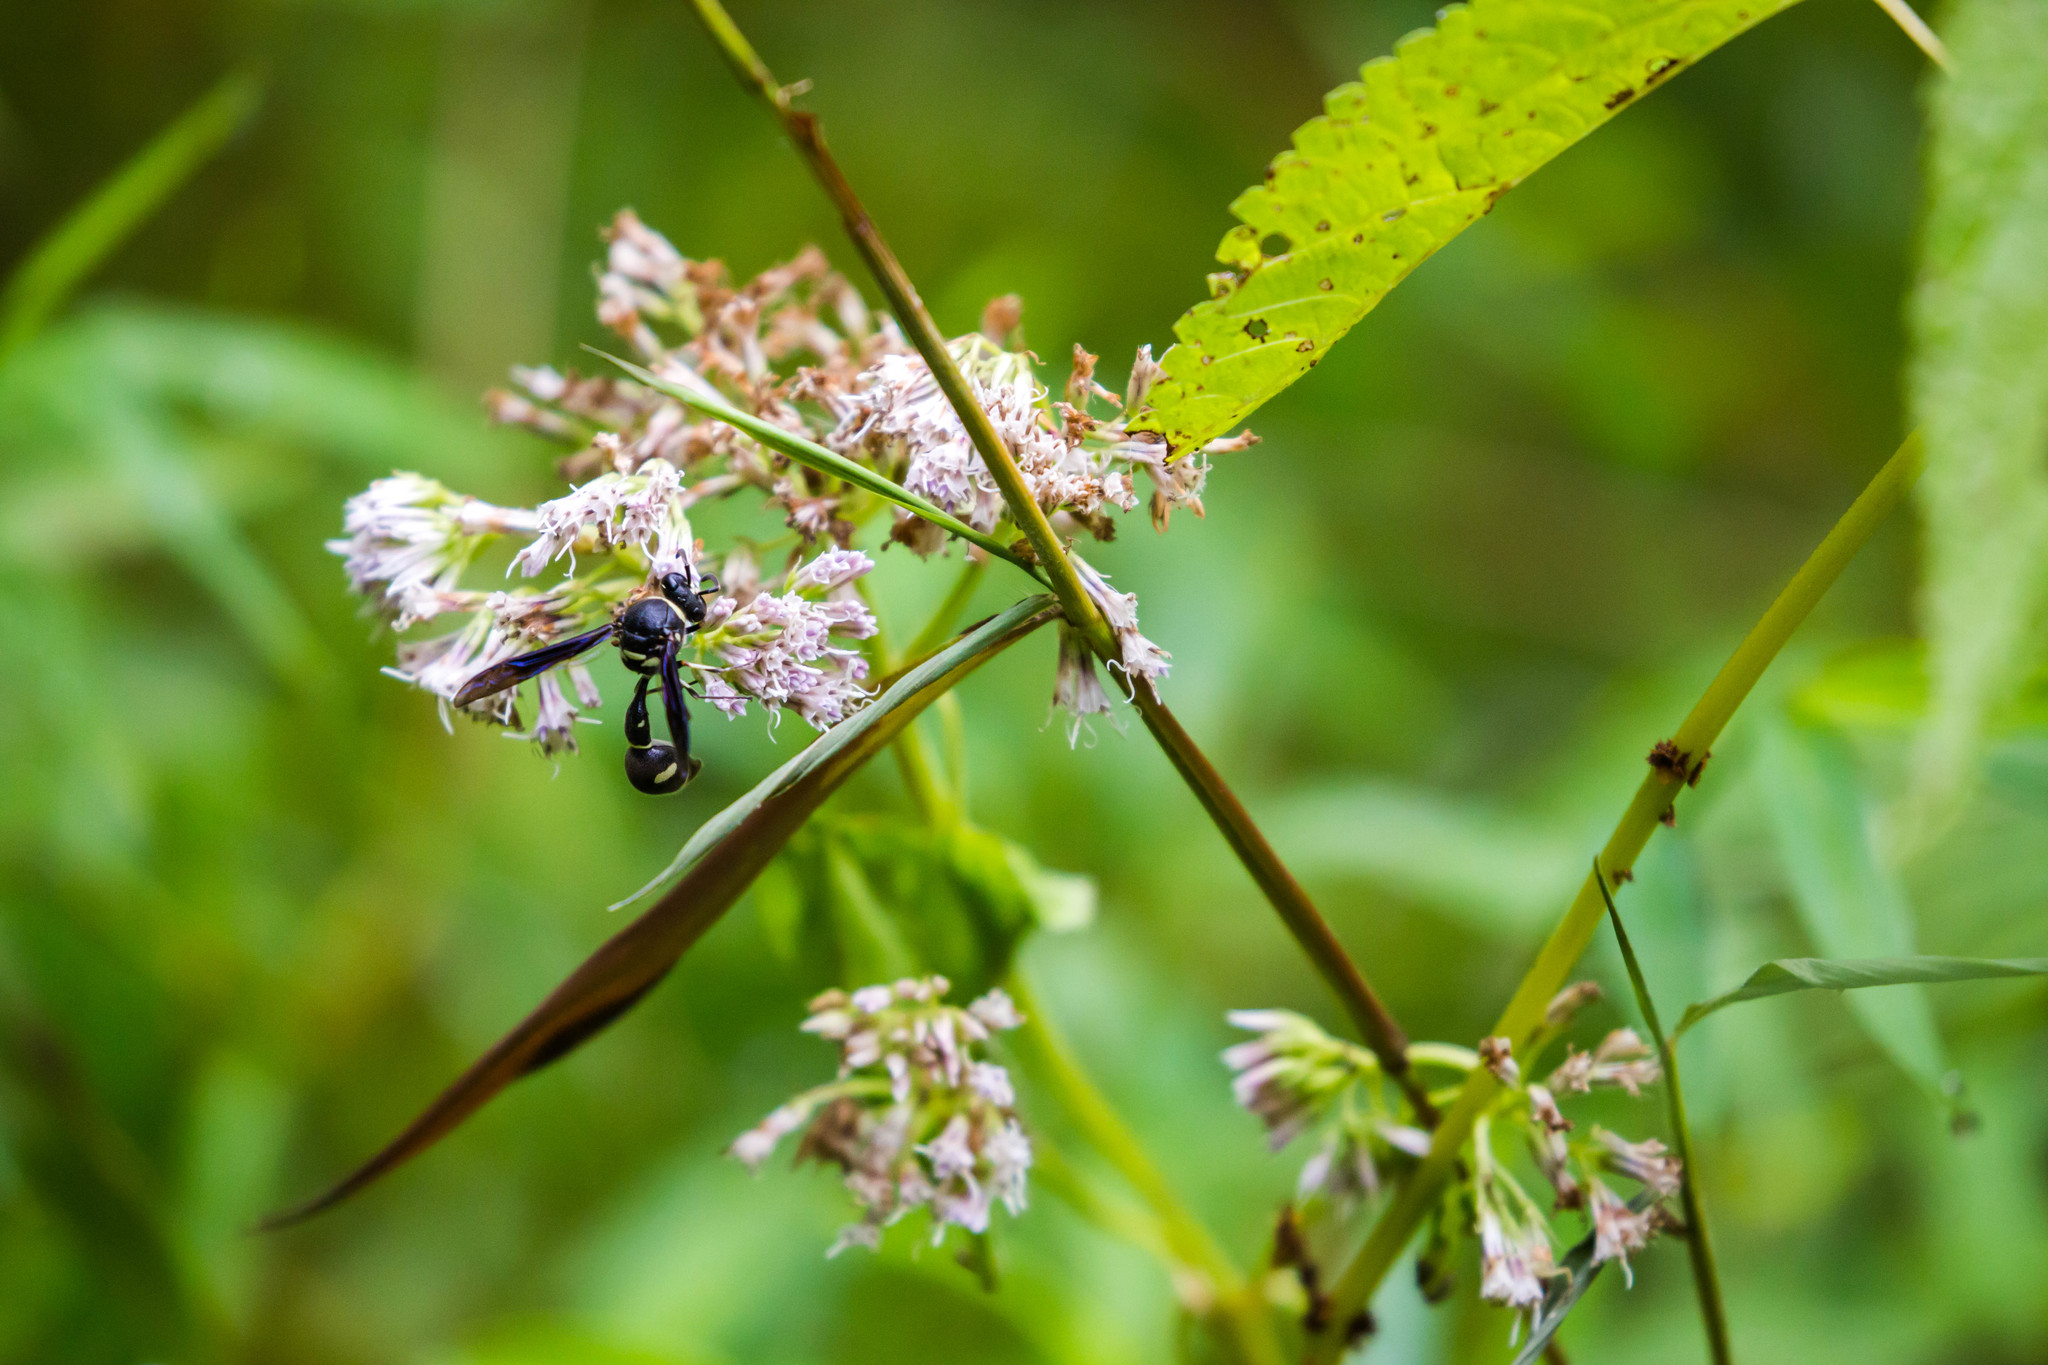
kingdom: Animalia
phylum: Arthropoda
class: Insecta
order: Hymenoptera
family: Vespidae
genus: Eumenes
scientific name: Eumenes fraternus
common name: Fraternal potter wasp
